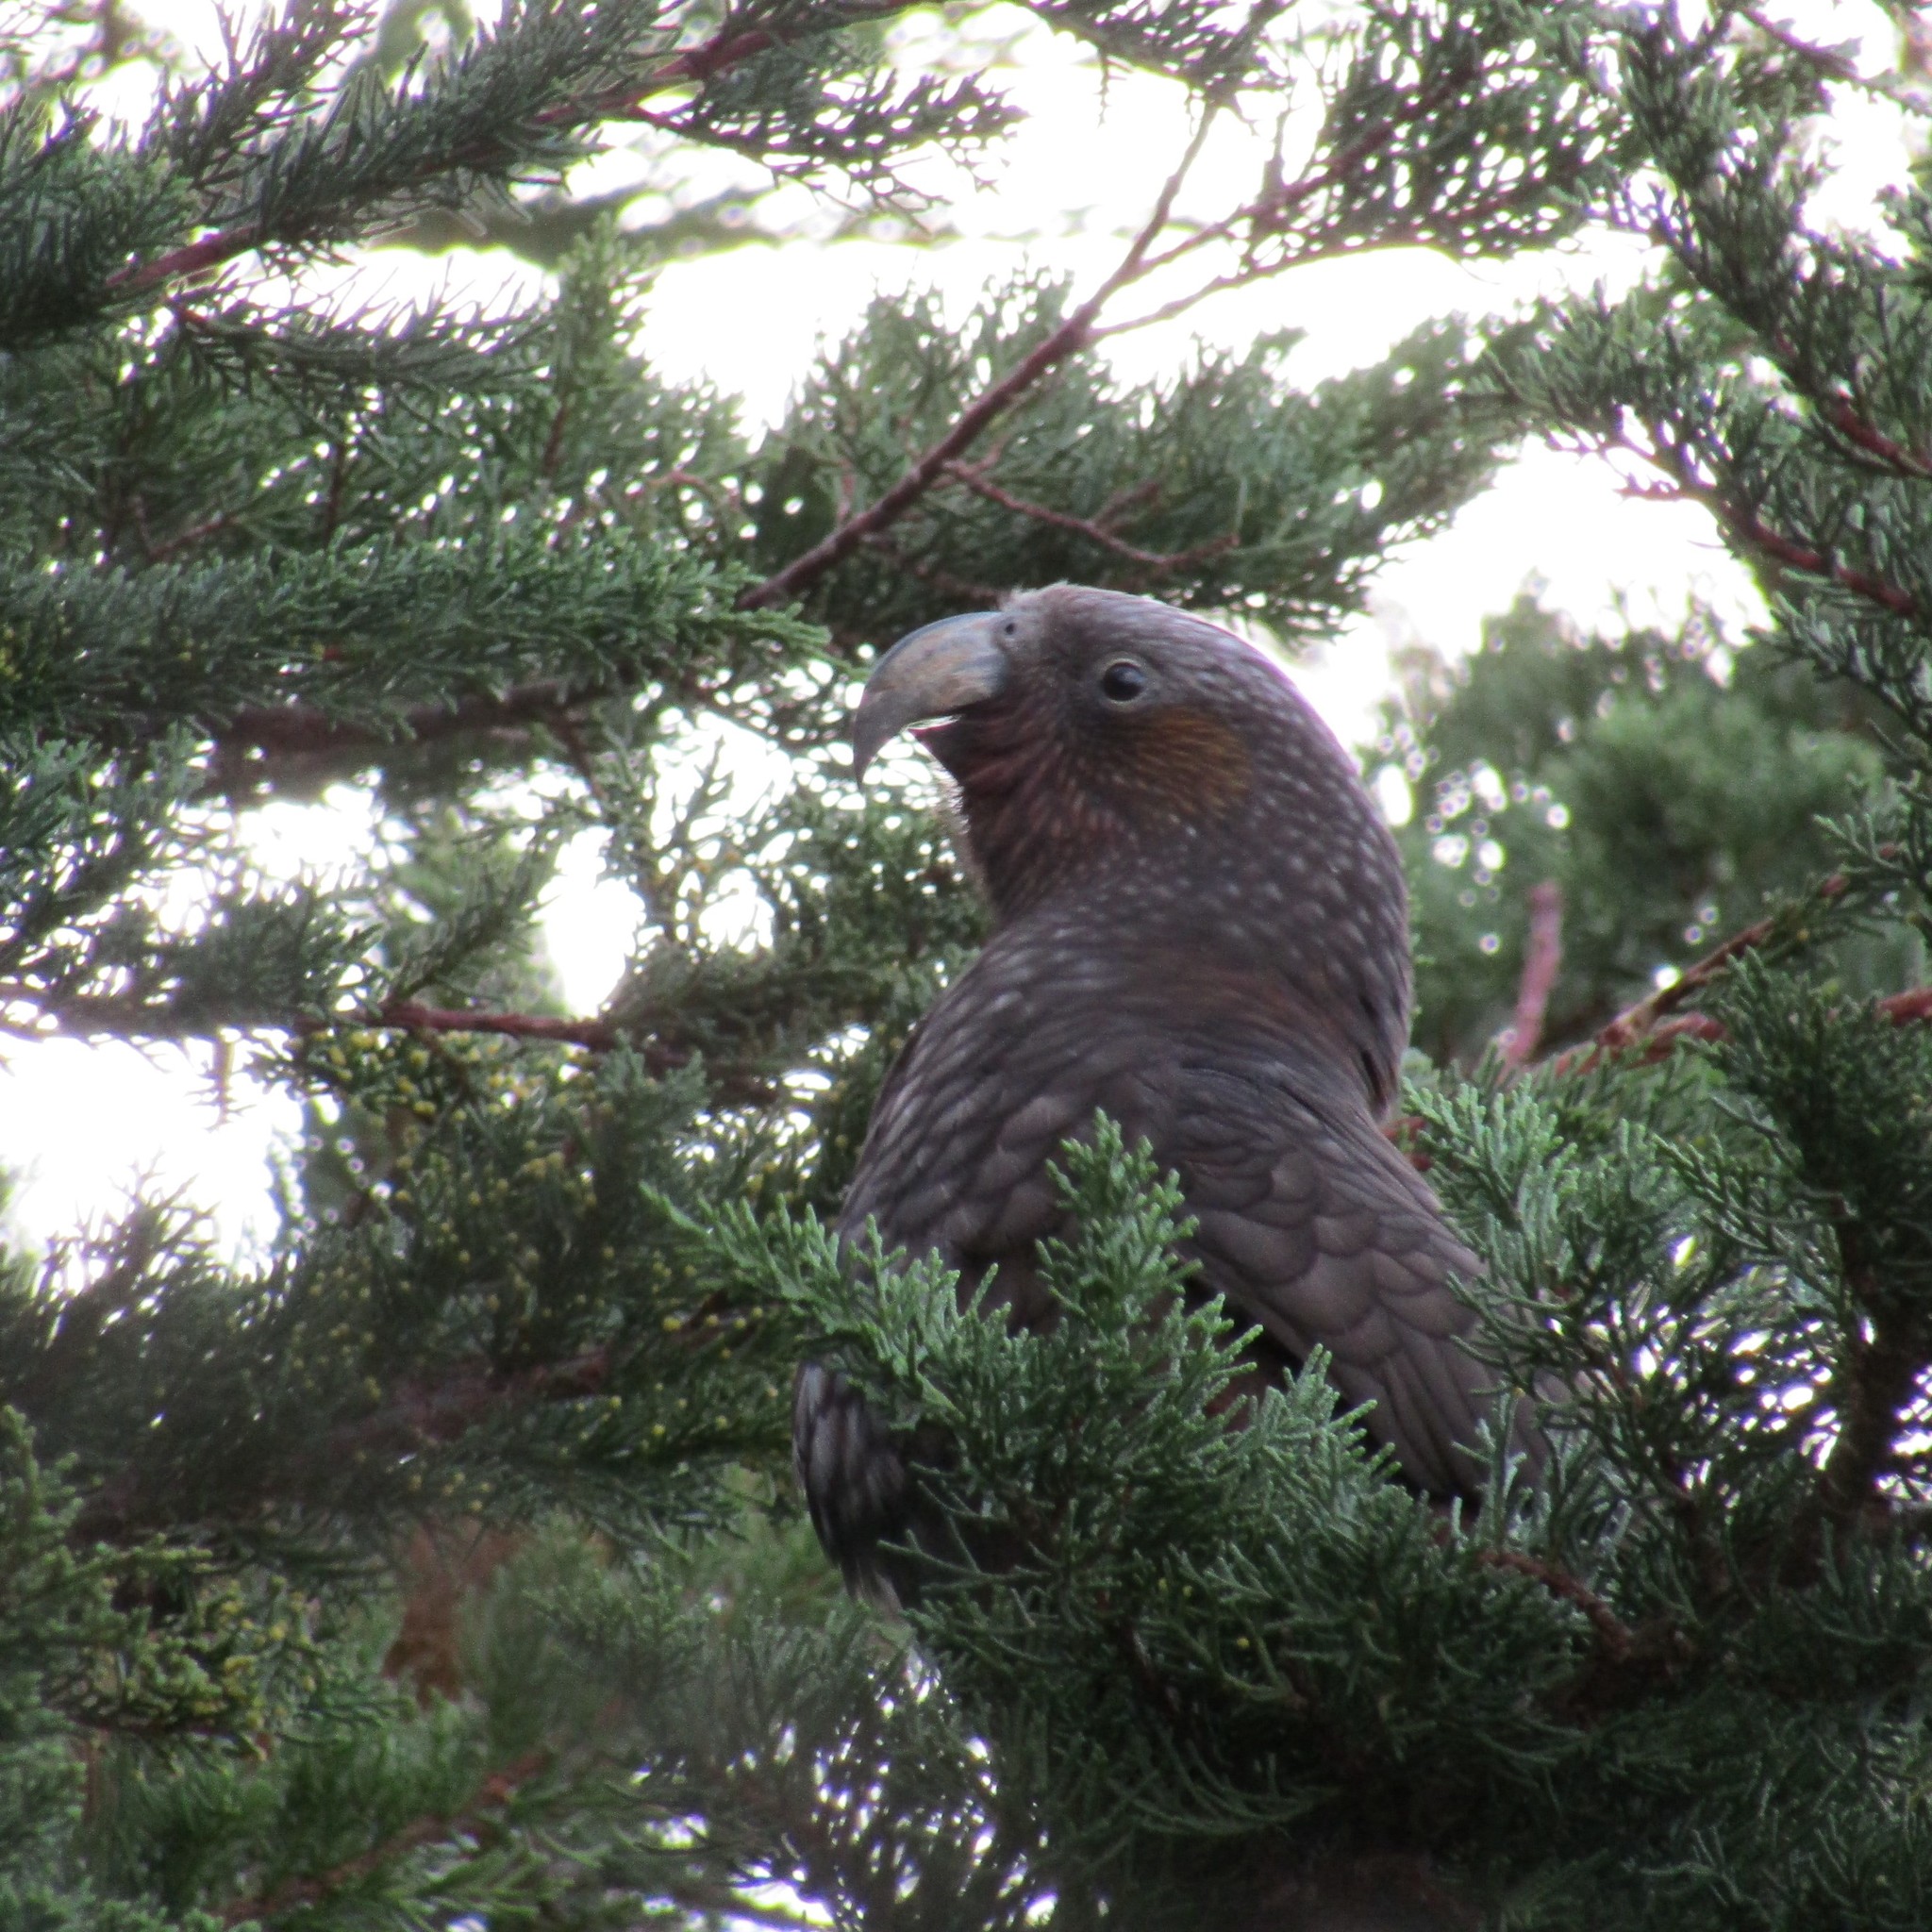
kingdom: Animalia
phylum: Chordata
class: Aves
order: Psittaciformes
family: Psittacidae
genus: Nestor
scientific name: Nestor meridionalis
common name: New zealand kaka
